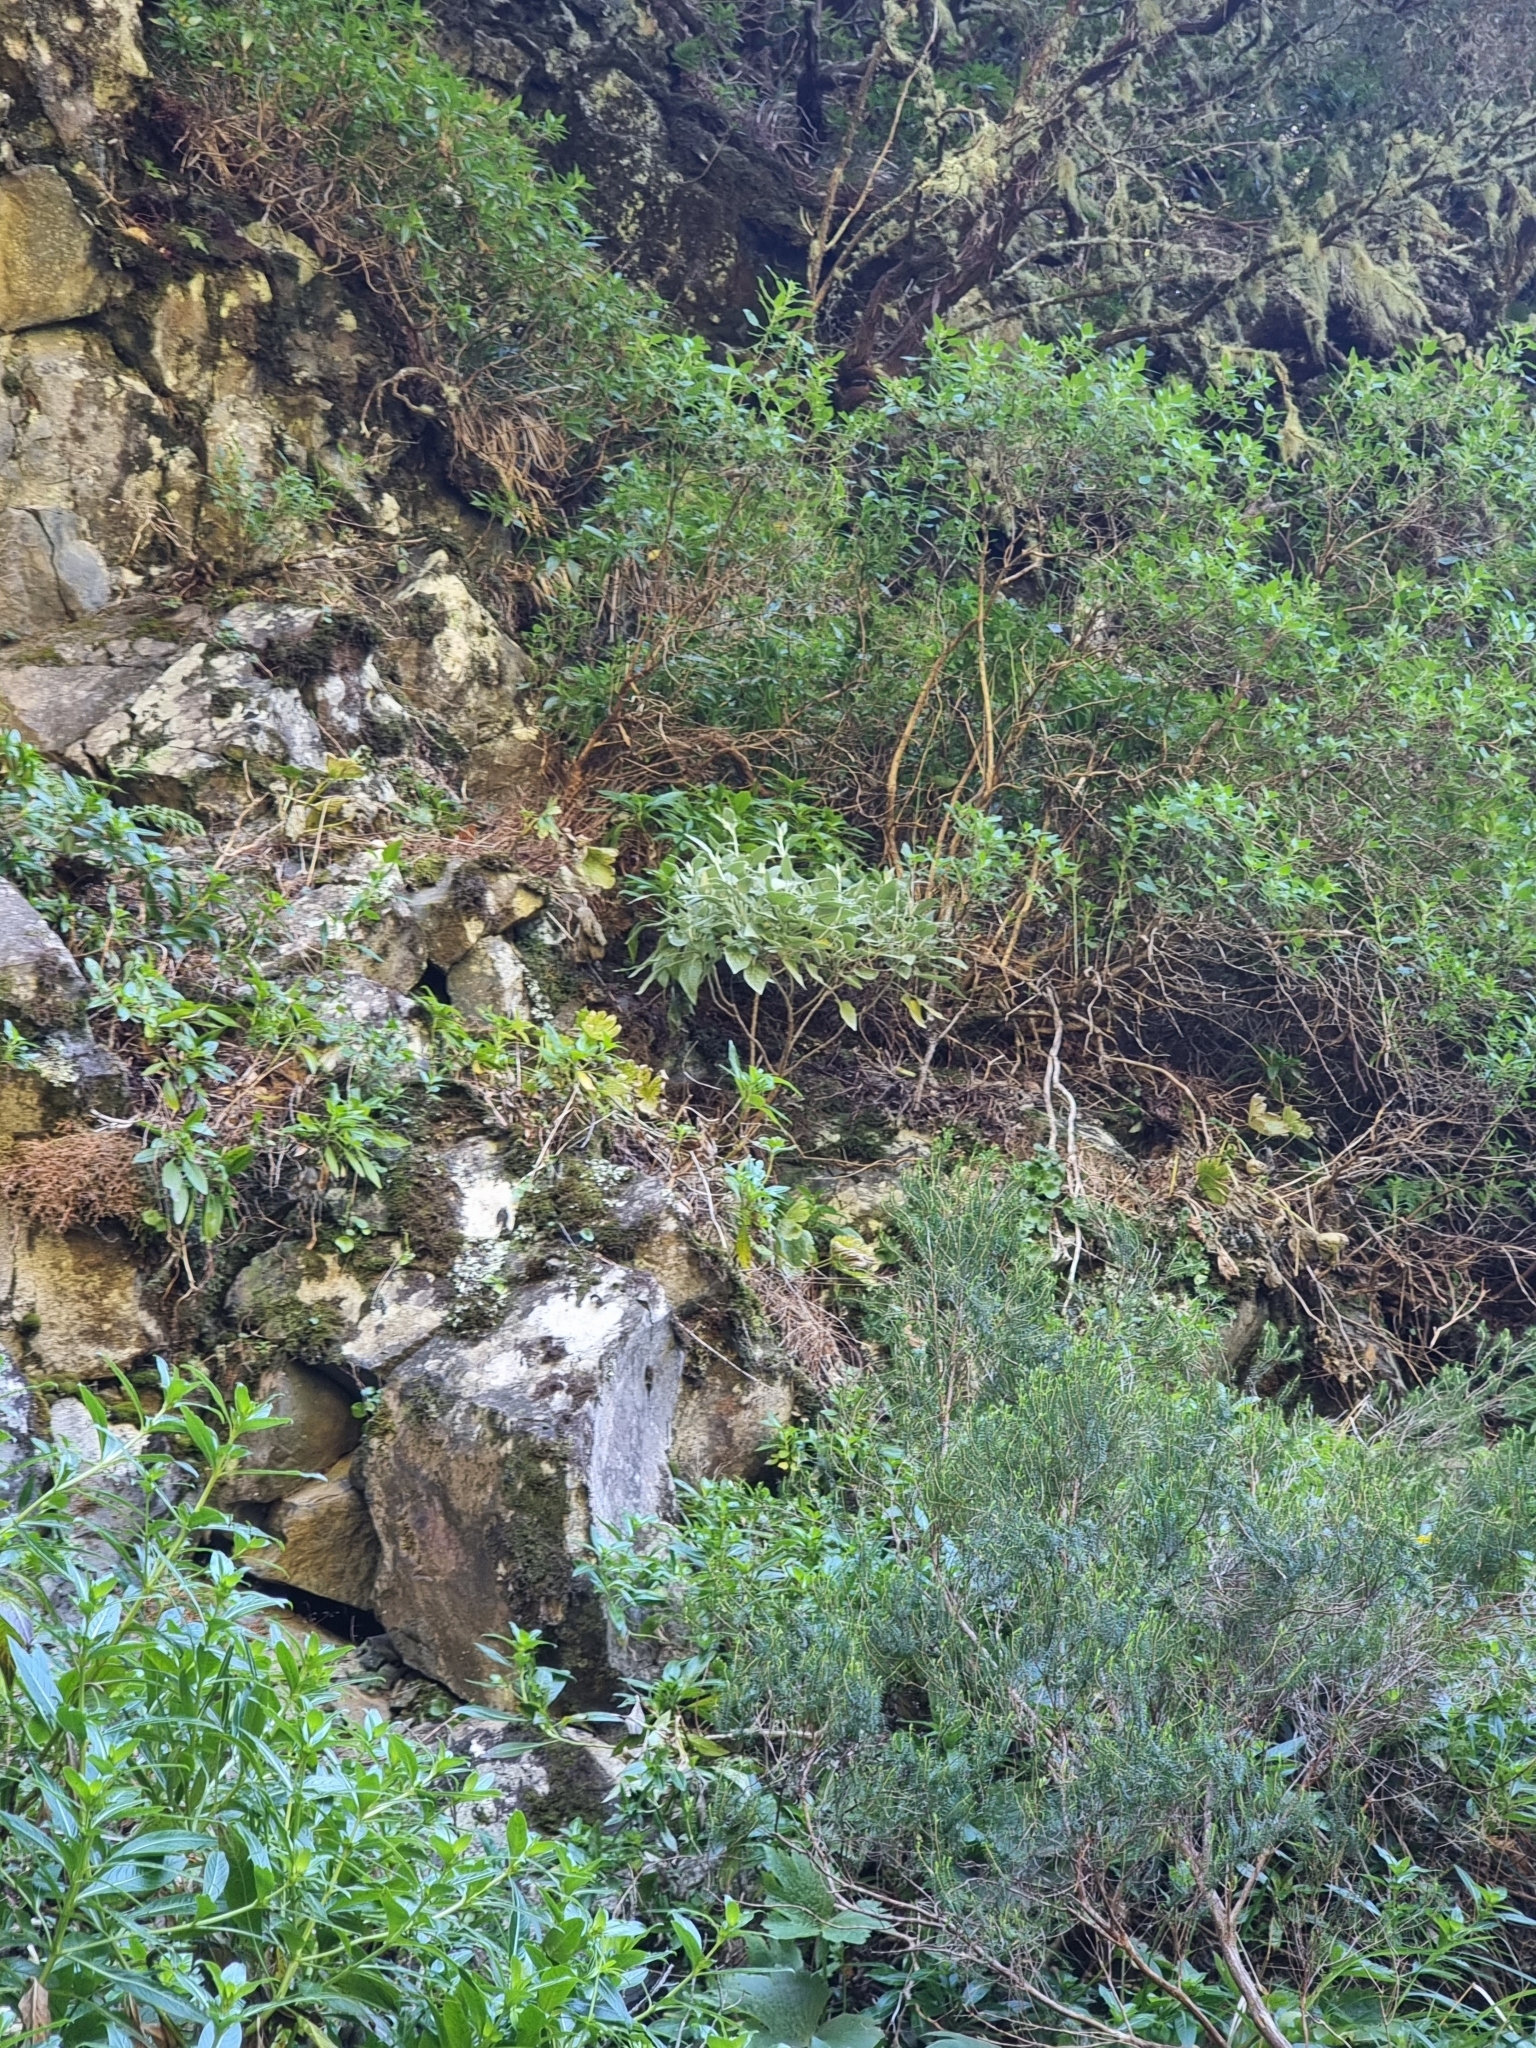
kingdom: Plantae
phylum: Tracheophyta
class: Magnoliopsida
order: Lamiales
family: Lamiaceae
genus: Sideritis
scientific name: Sideritis candicans
